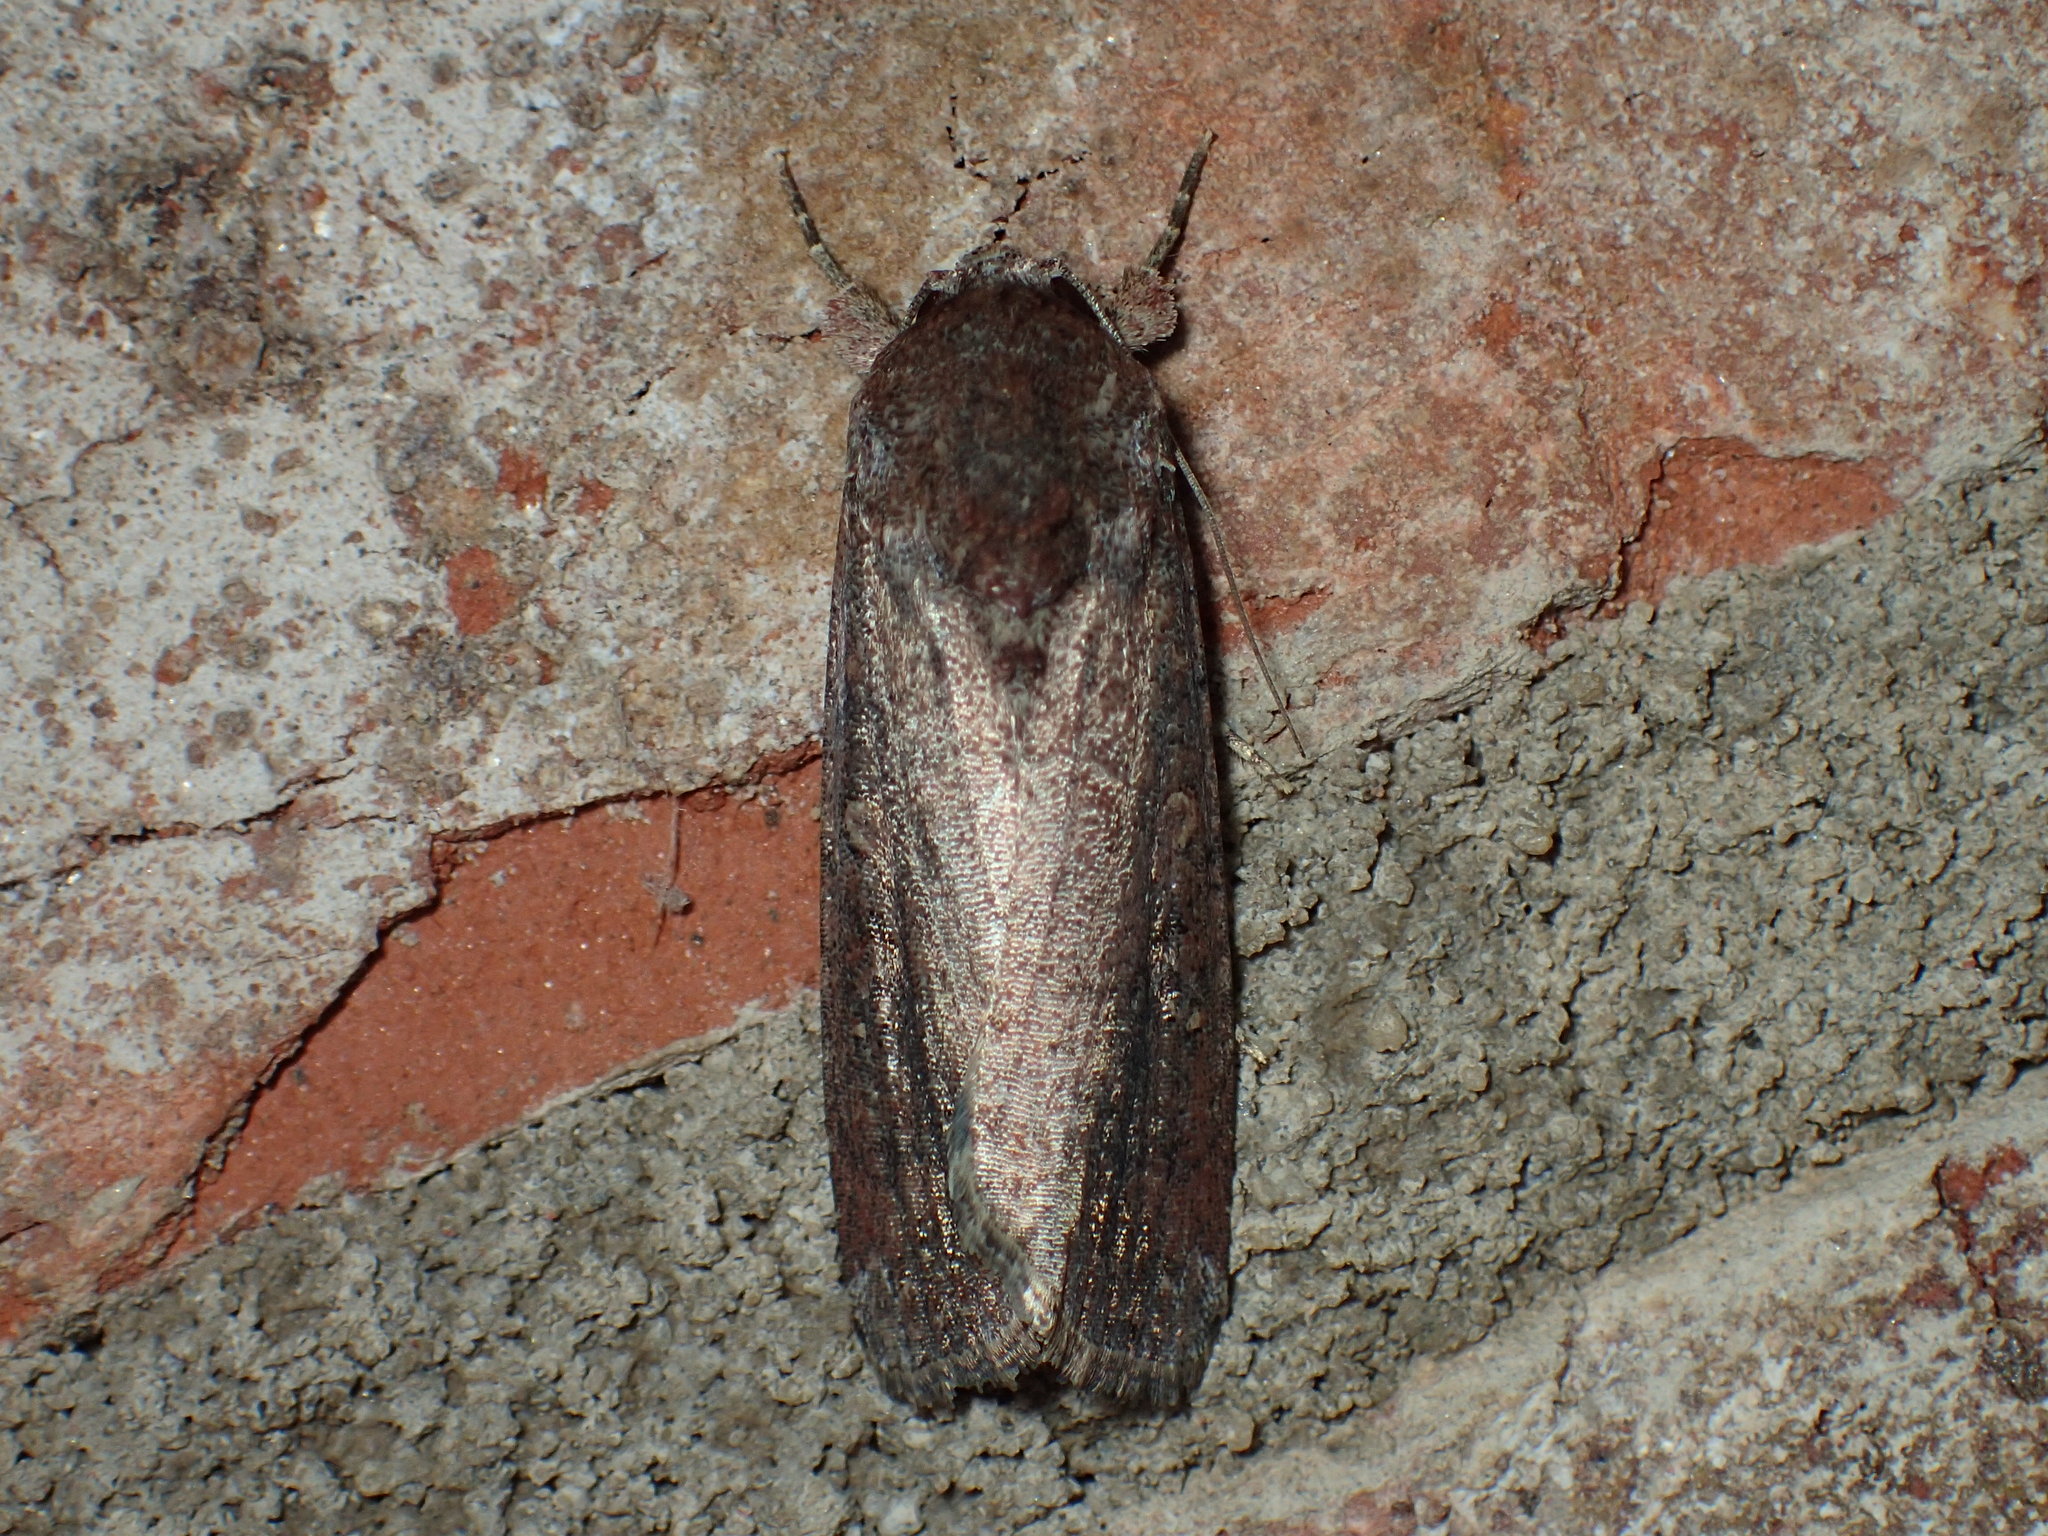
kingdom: Animalia
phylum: Arthropoda
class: Insecta
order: Lepidoptera
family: Noctuidae
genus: Spodoptera
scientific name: Spodoptera frugiperda
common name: Fall armyworm
